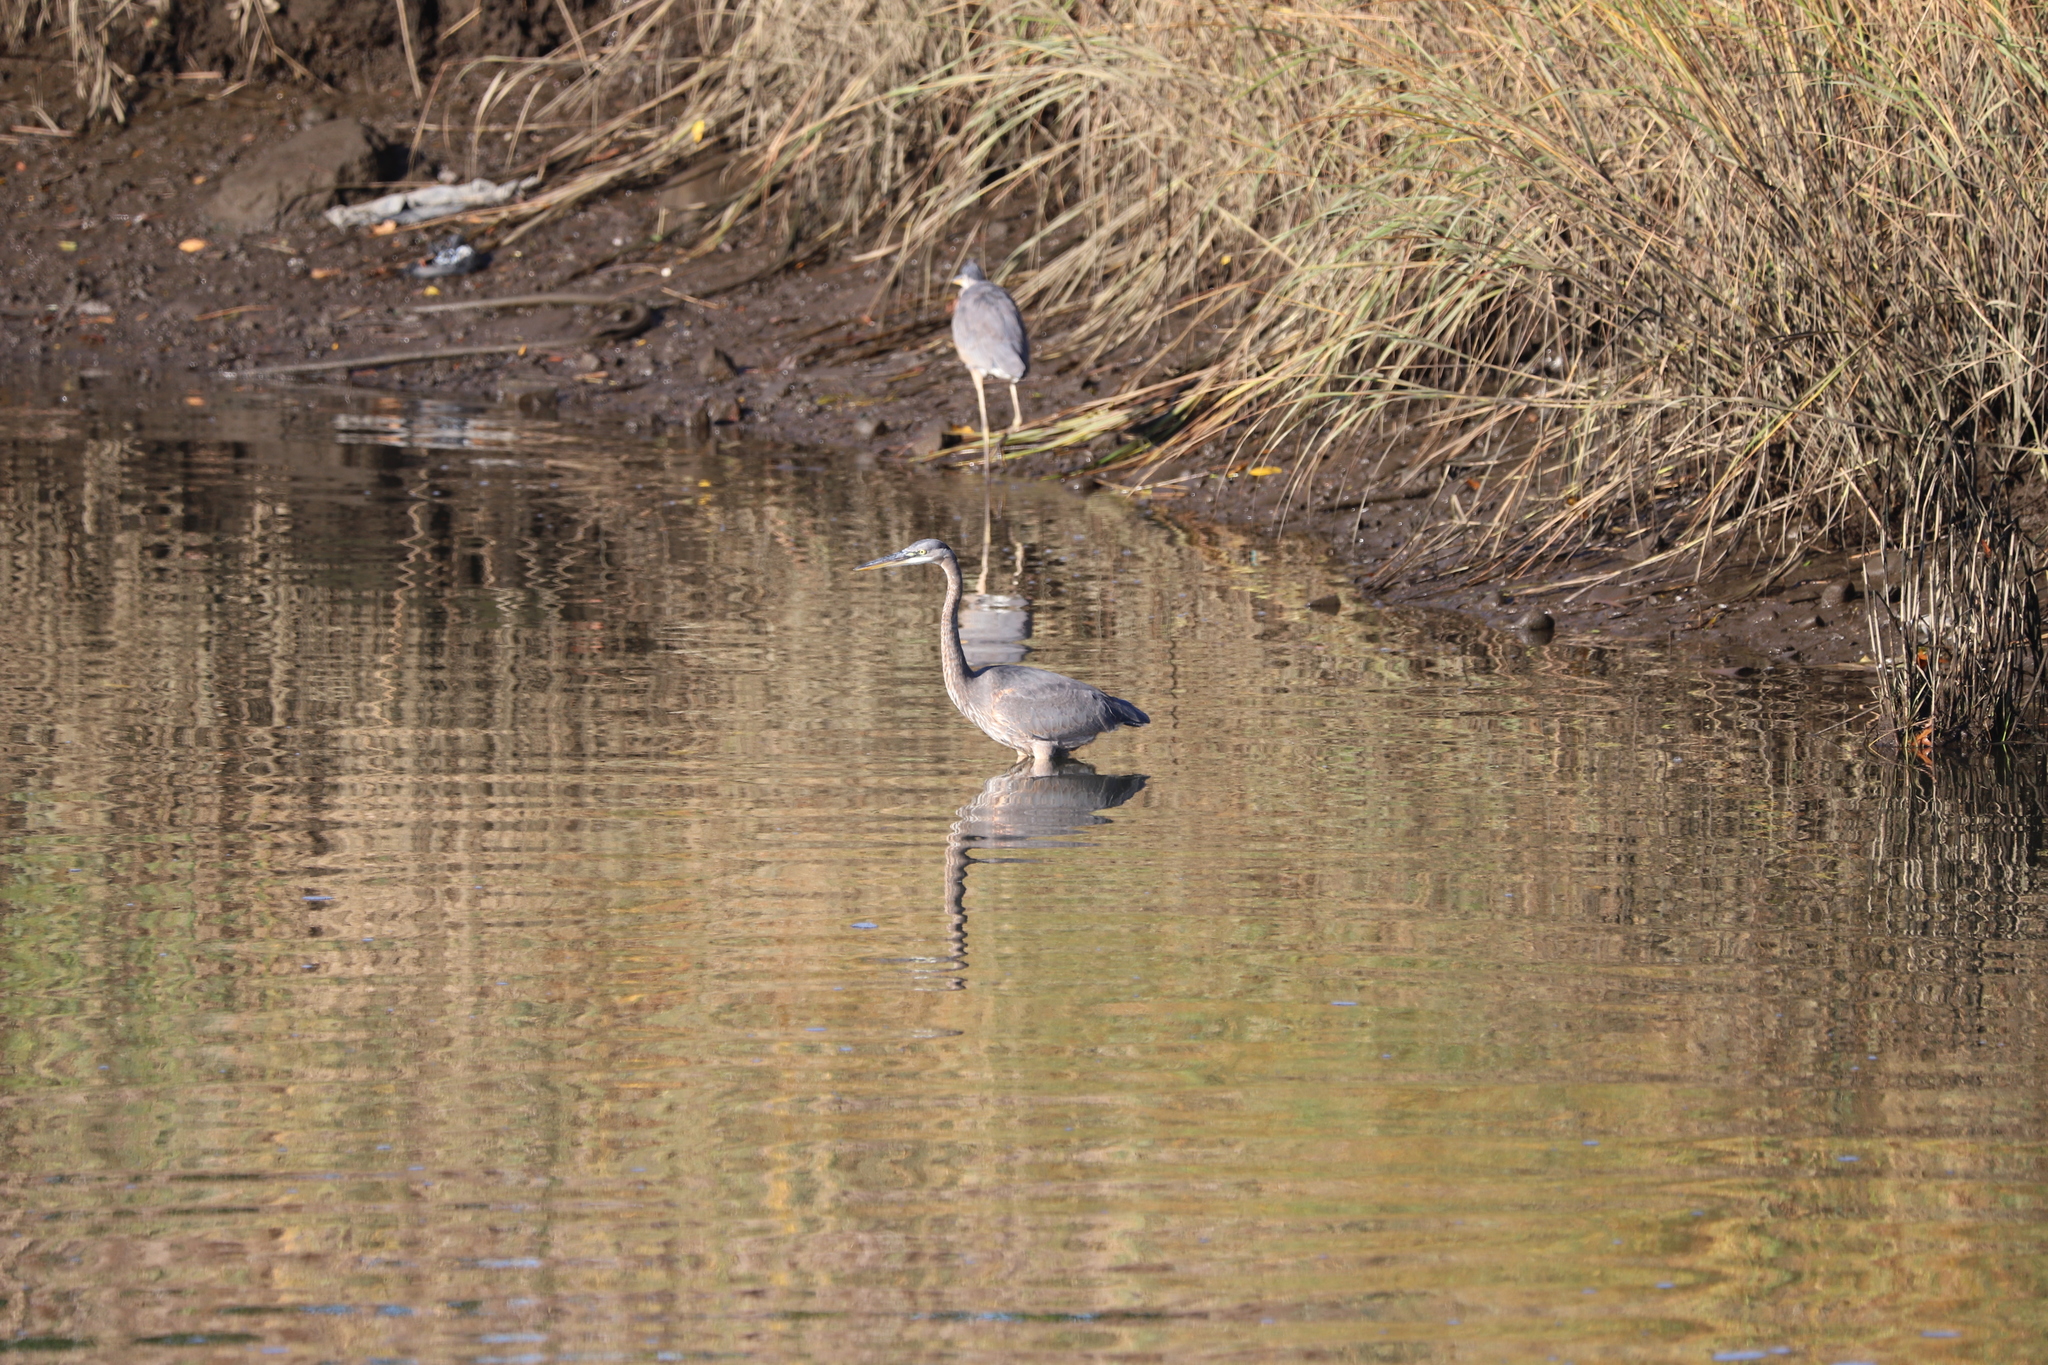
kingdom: Animalia
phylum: Chordata
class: Aves
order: Pelecaniformes
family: Ardeidae
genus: Ardea
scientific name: Ardea herodias
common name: Great blue heron
